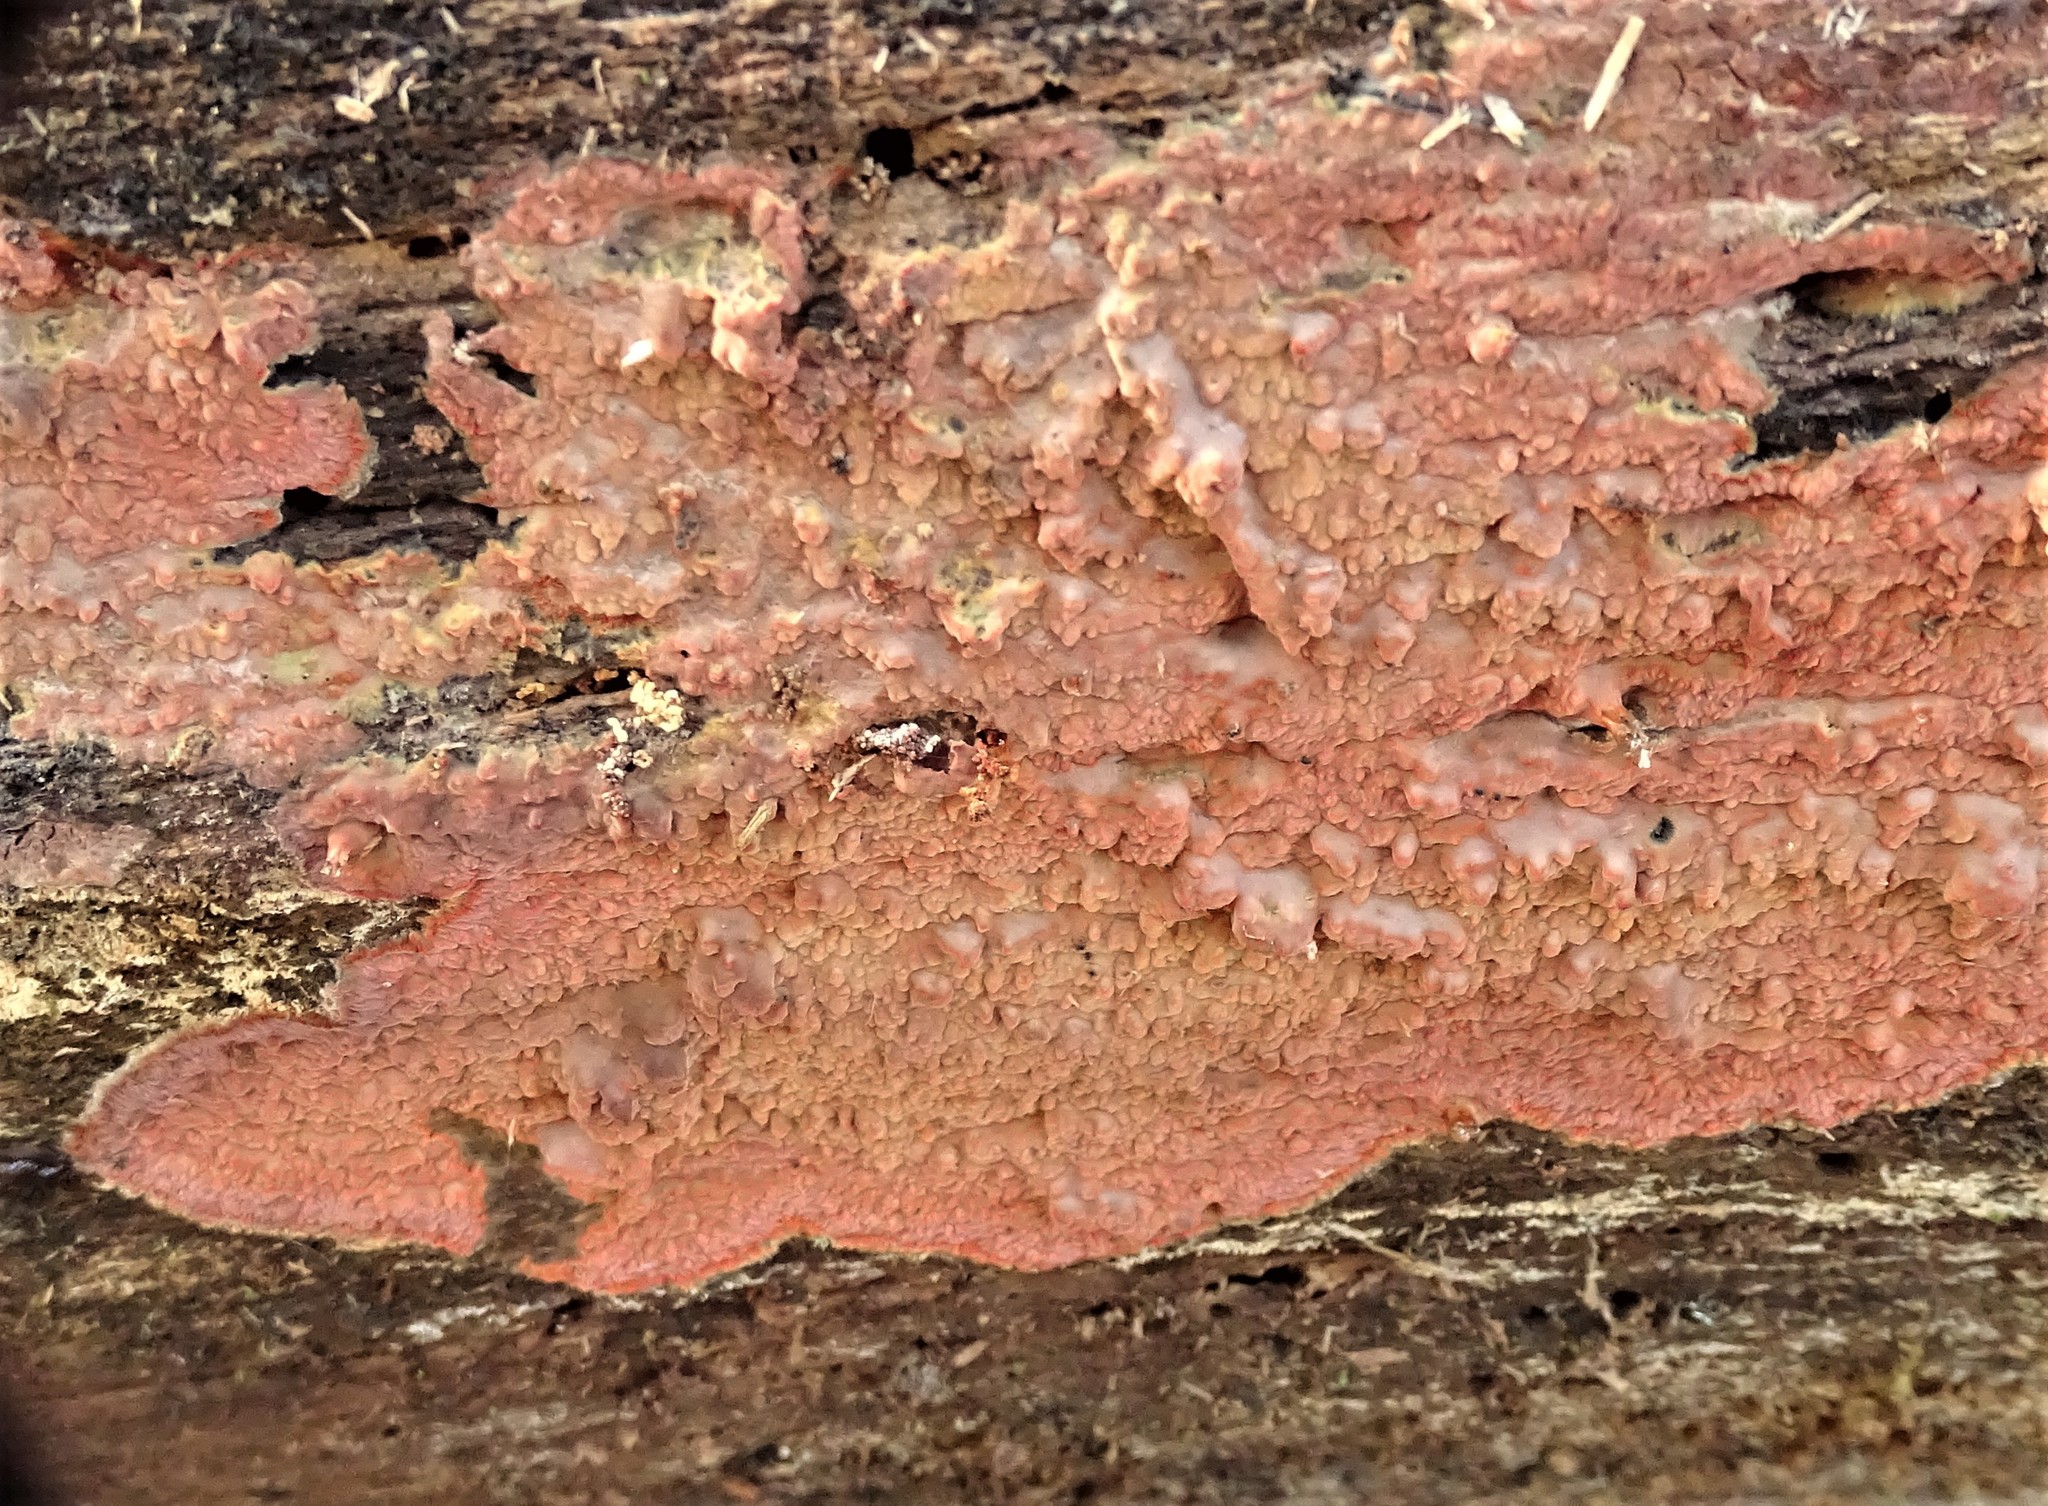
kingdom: Fungi
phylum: Basidiomycota
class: Agaricomycetes
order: Polyporales
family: Meruliaceae
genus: Phlebia
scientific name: Phlebia radiata
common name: Wrinkled crust
